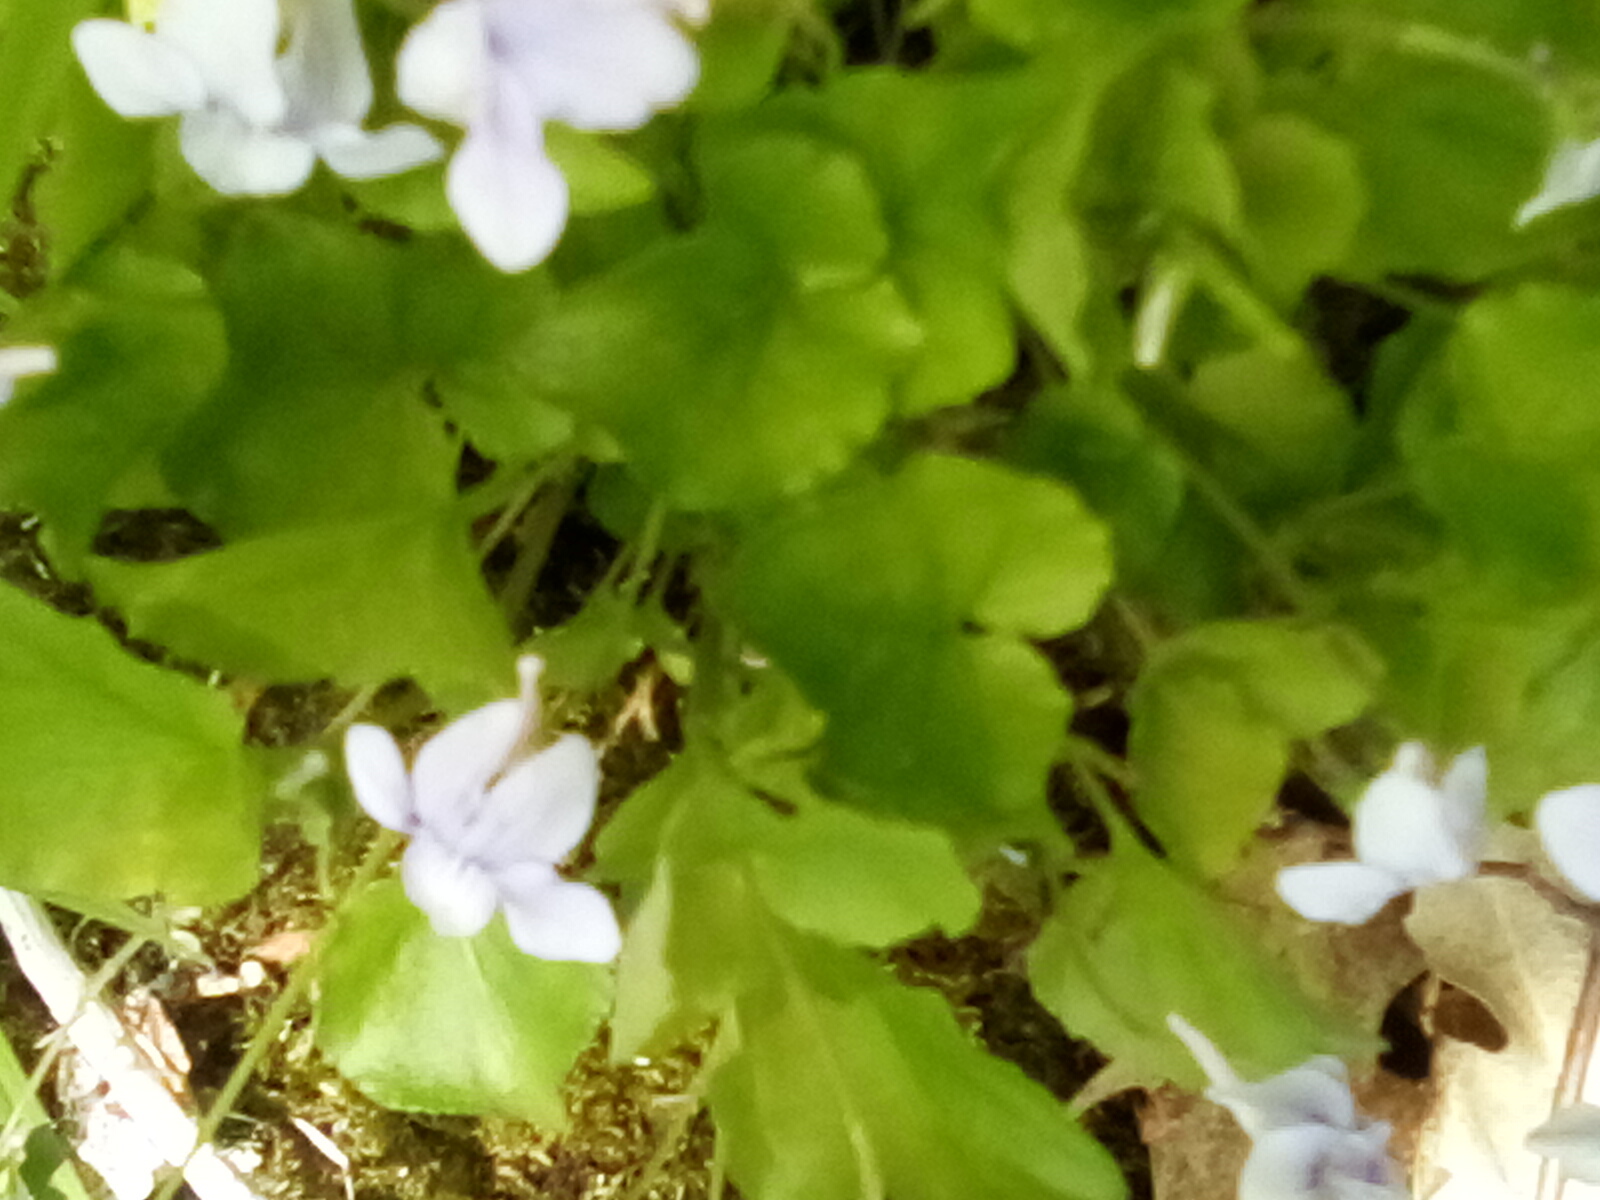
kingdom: Plantae
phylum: Tracheophyta
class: Magnoliopsida
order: Malpighiales
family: Violaceae
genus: Viola
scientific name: Viola rostrata
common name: Long-spur violet
